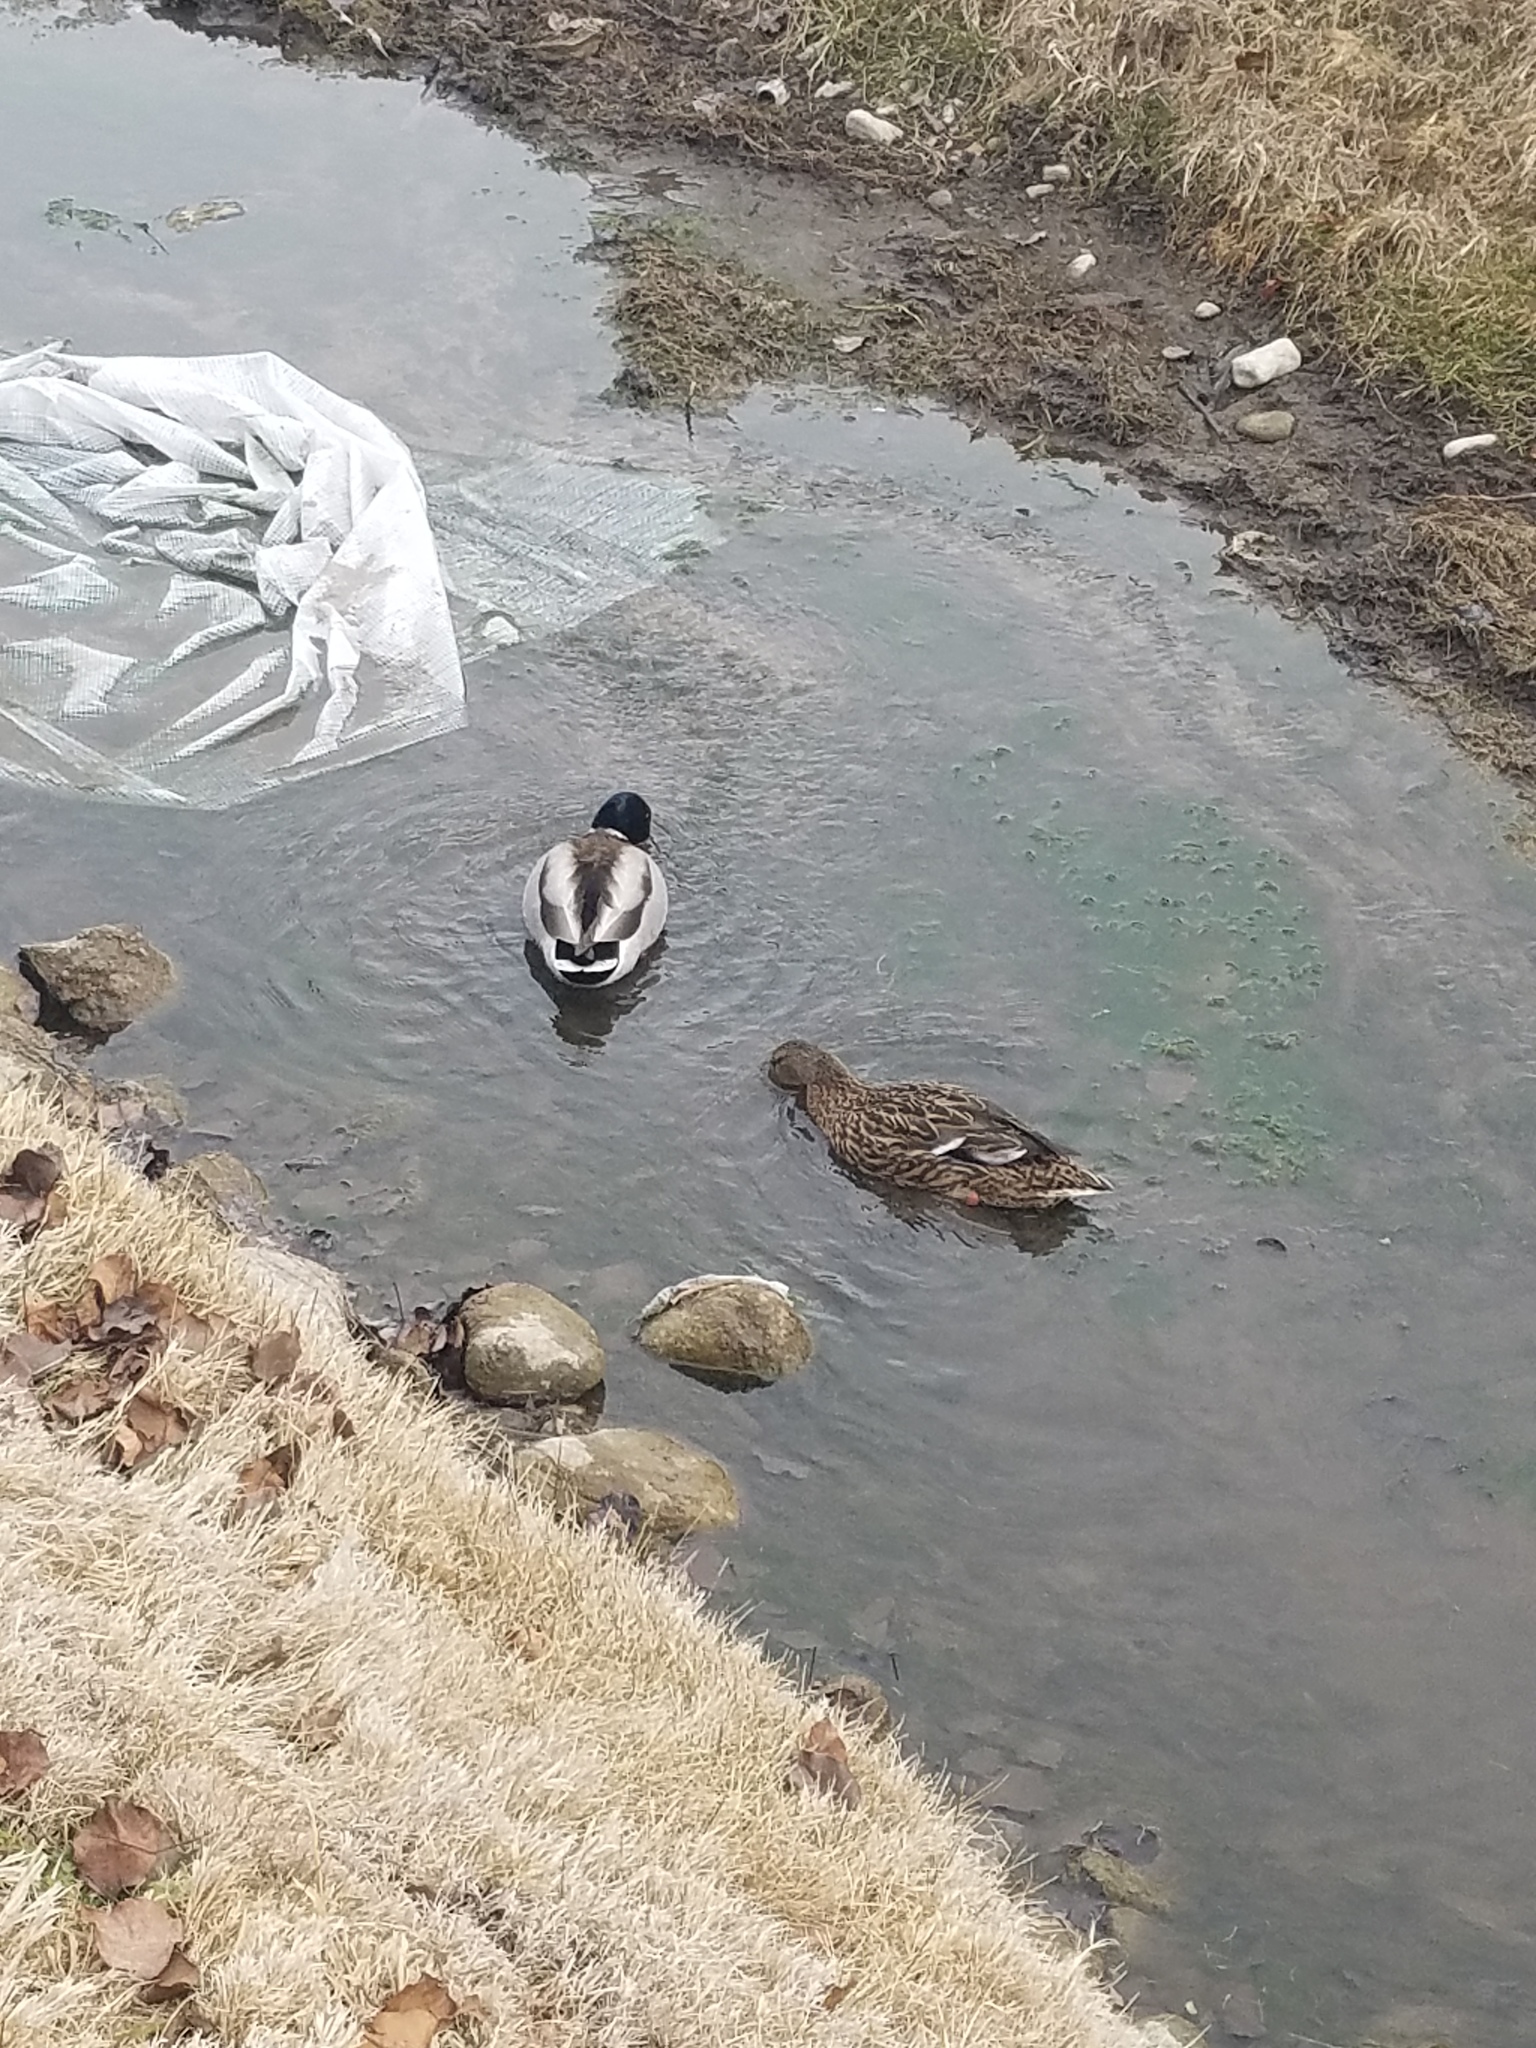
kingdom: Animalia
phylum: Chordata
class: Aves
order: Anseriformes
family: Anatidae
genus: Anas
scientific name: Anas platyrhynchos
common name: Mallard
